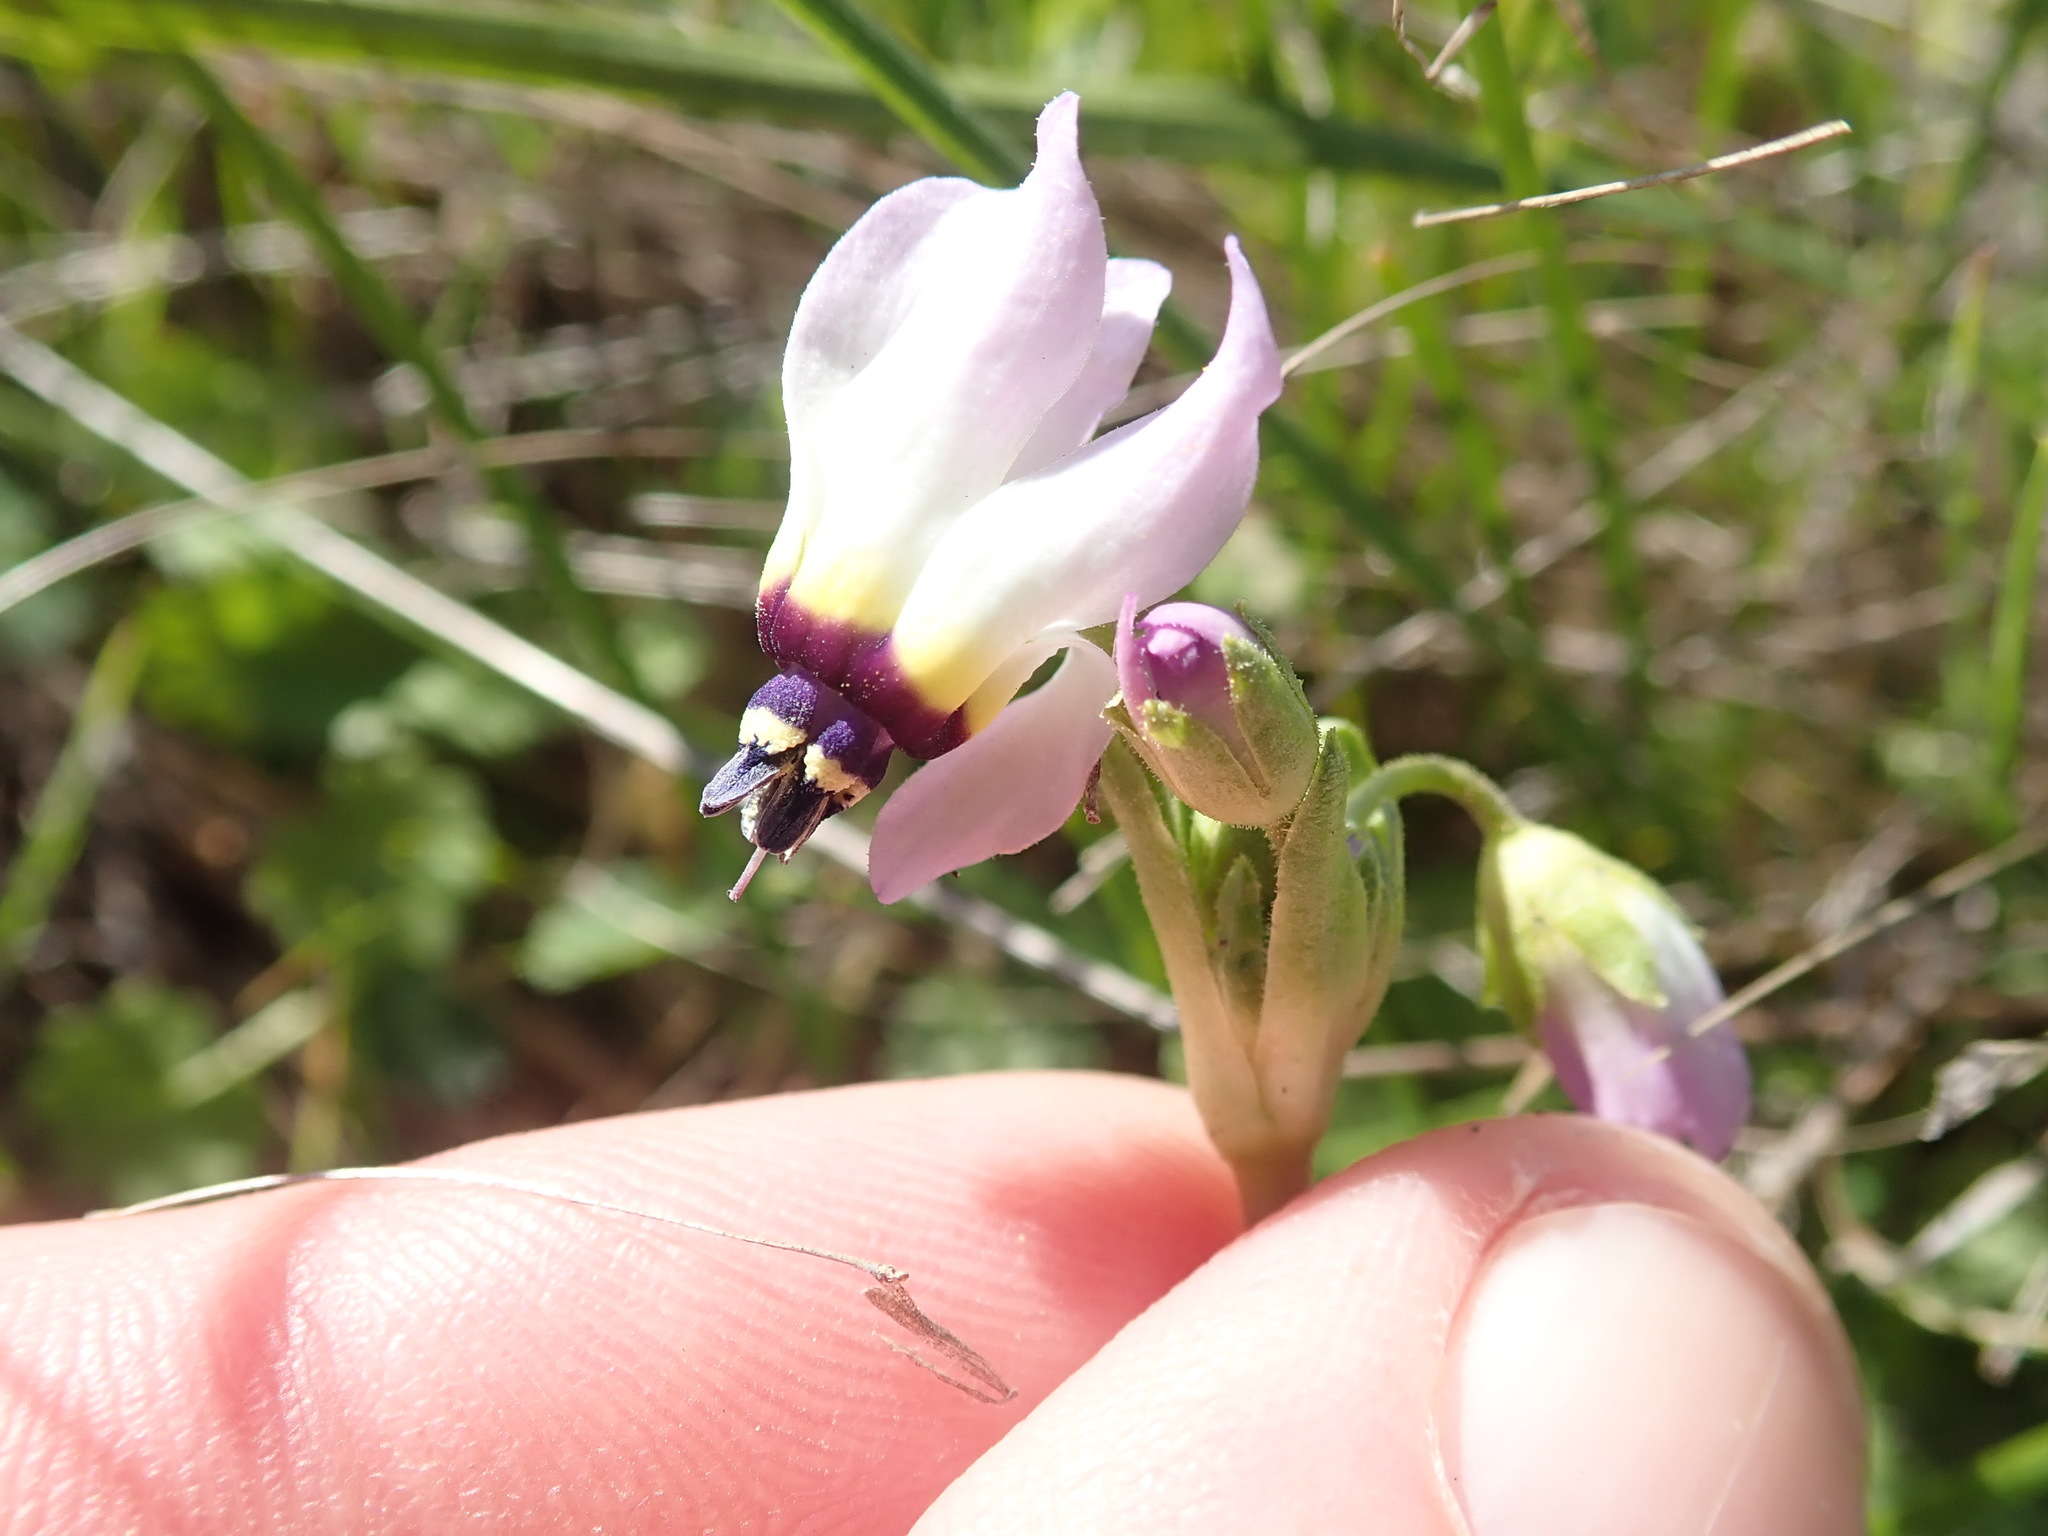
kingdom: Plantae
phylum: Tracheophyta
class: Magnoliopsida
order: Ericales
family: Primulaceae
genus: Dodecatheon
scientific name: Dodecatheon clevelandii
